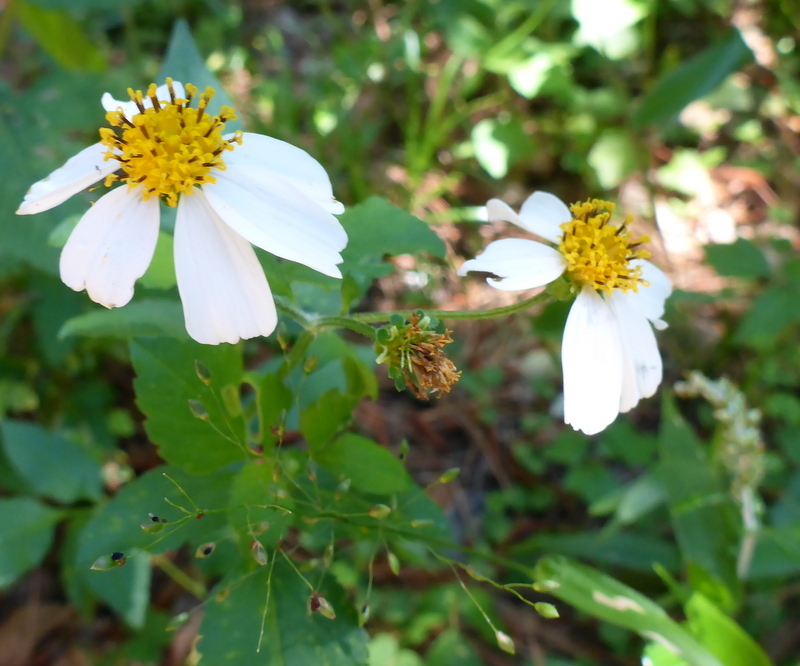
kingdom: Plantae
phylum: Tracheophyta
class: Magnoliopsida
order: Asterales
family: Asteraceae
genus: Bidens
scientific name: Bidens alba
